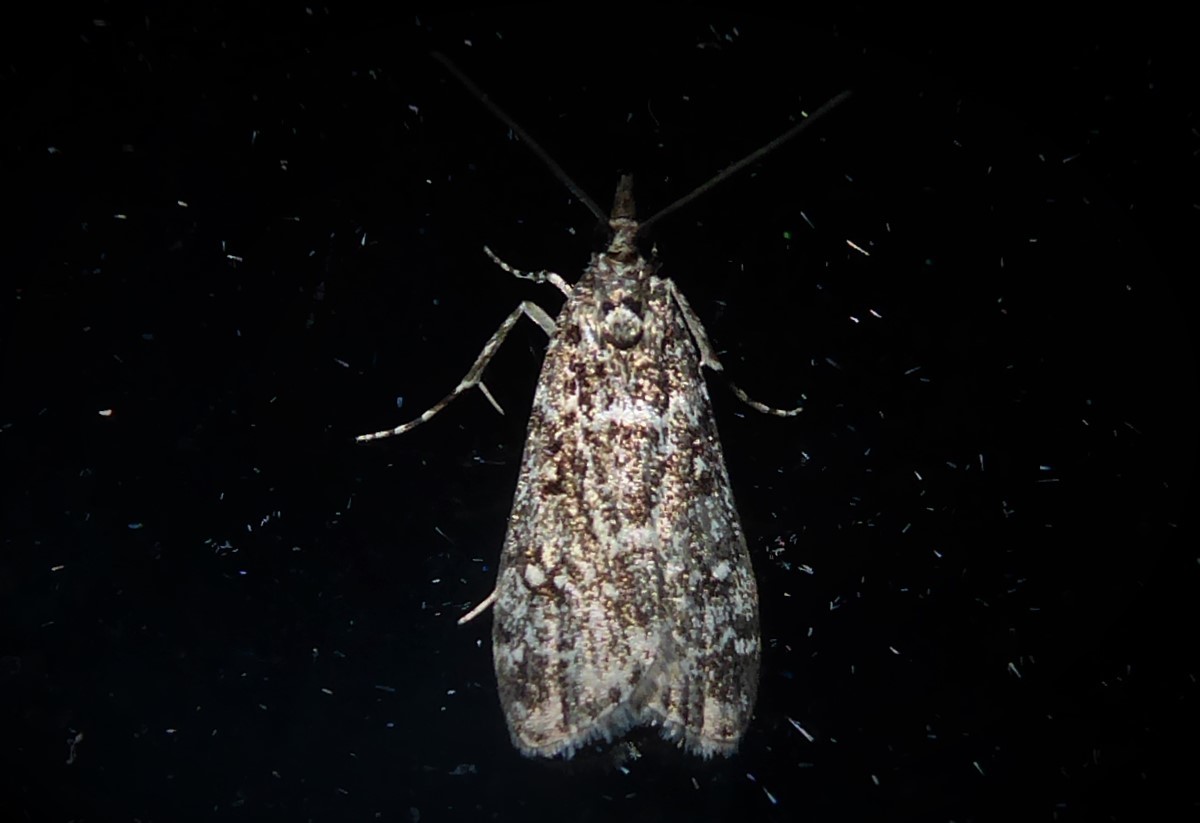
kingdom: Animalia
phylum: Arthropoda
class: Insecta
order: Lepidoptera
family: Crambidae
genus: Eudonia
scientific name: Eudonia philerga
